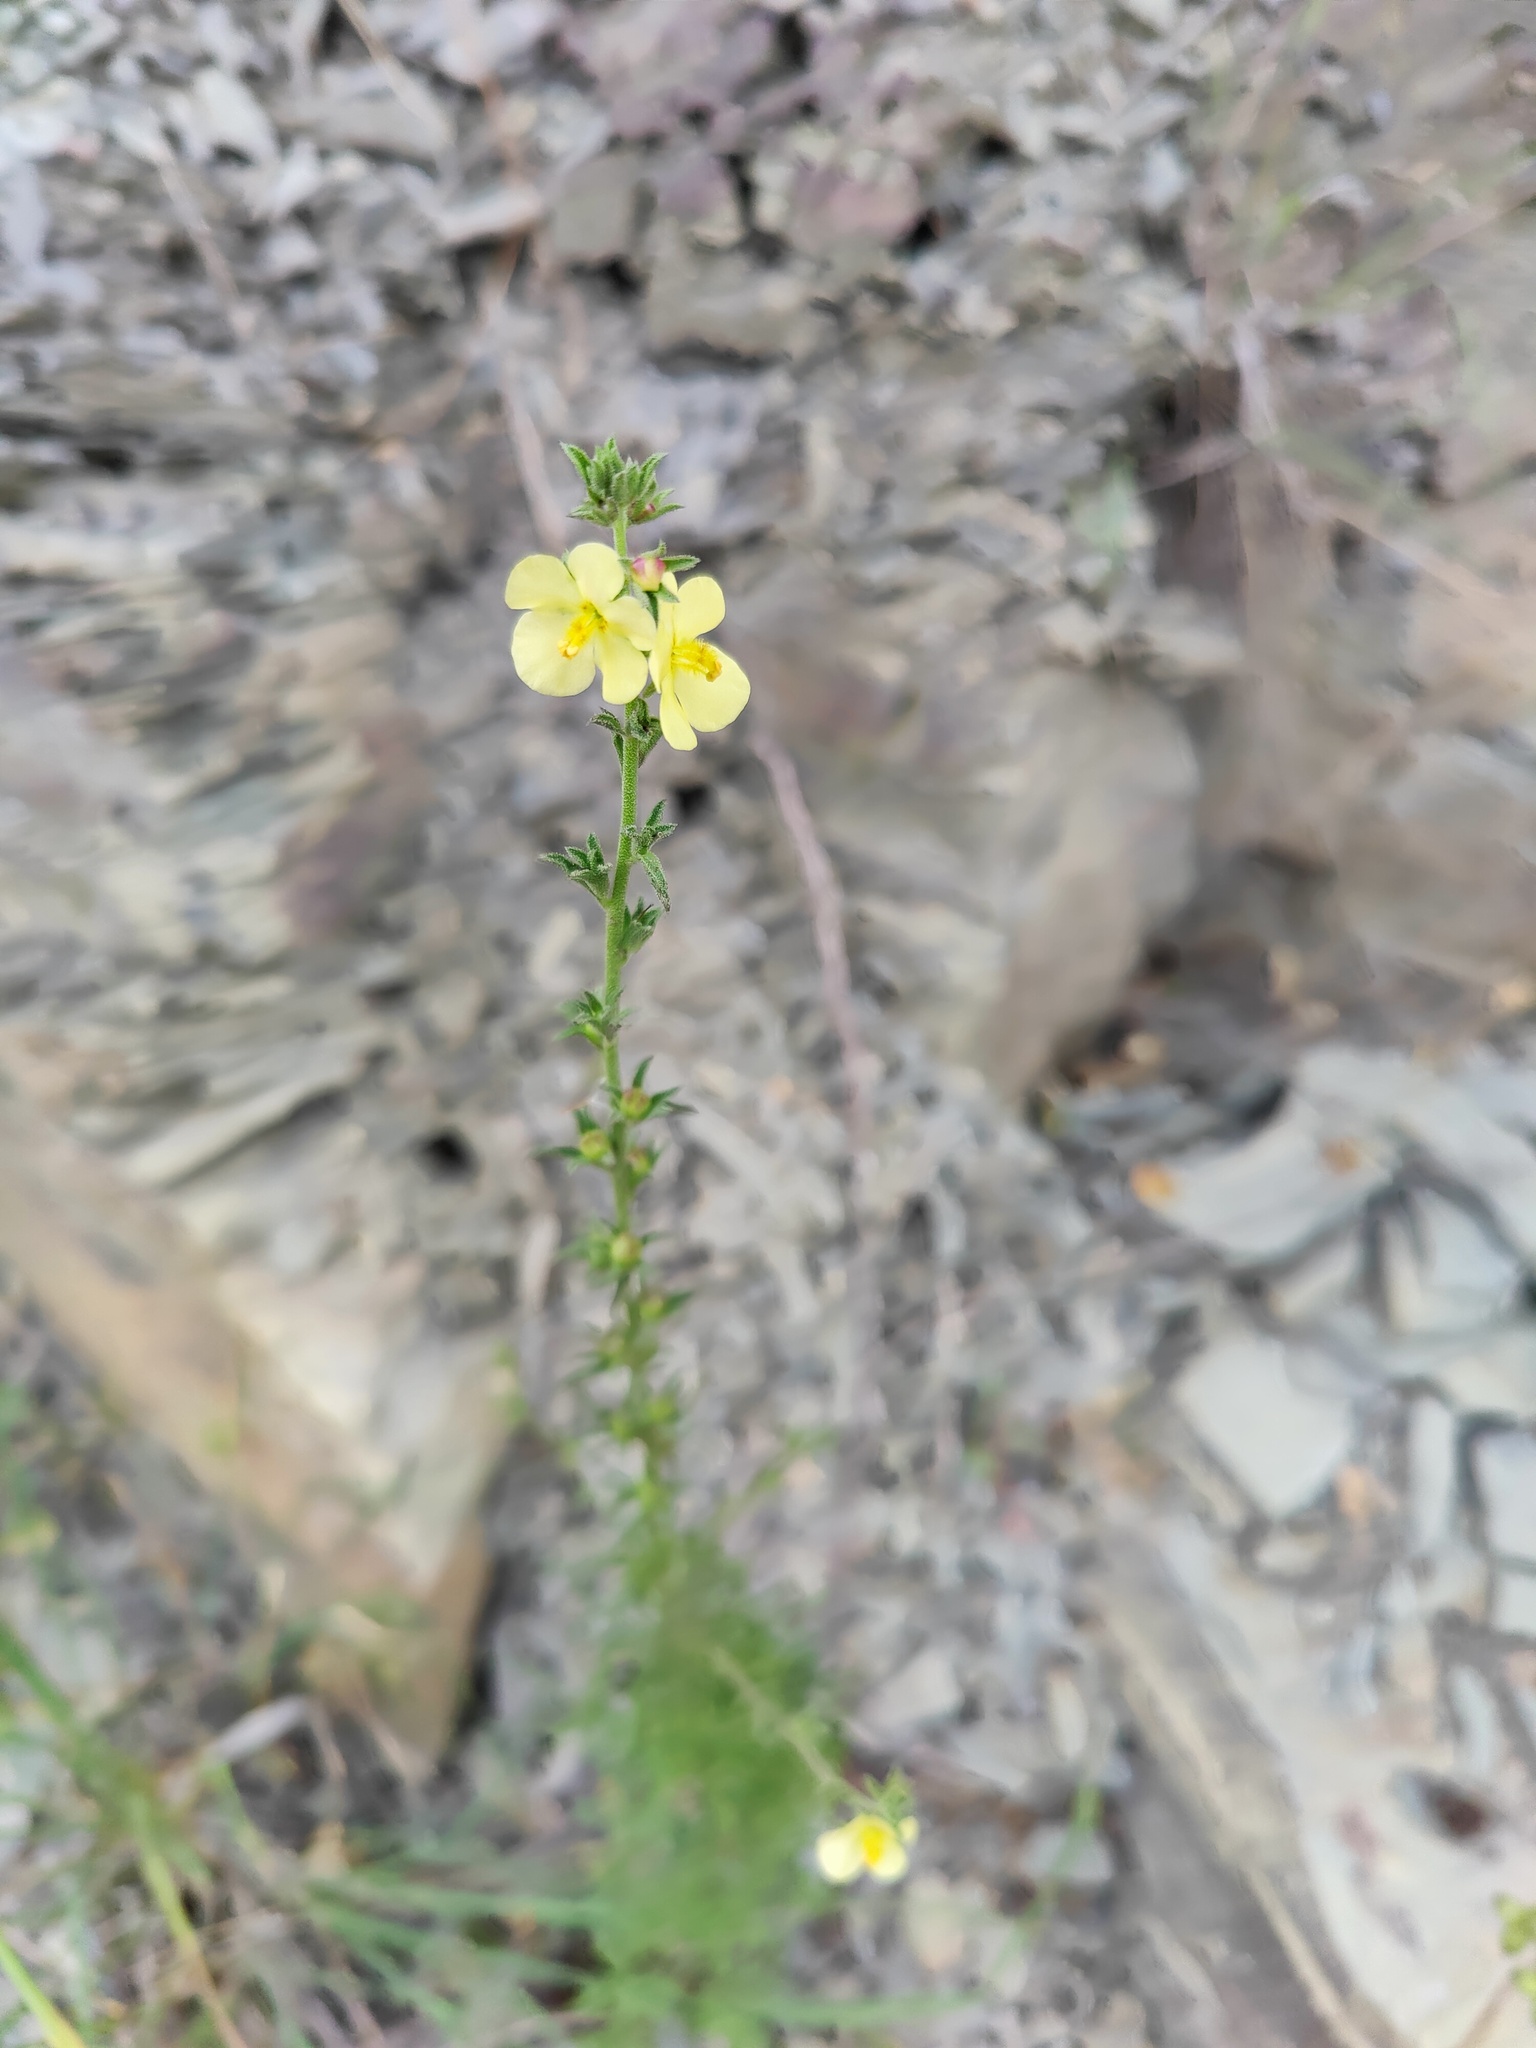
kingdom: Plantae
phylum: Tracheophyta
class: Magnoliopsida
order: Lamiales
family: Scrophulariaceae
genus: Verbascum
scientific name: Verbascum orientale
